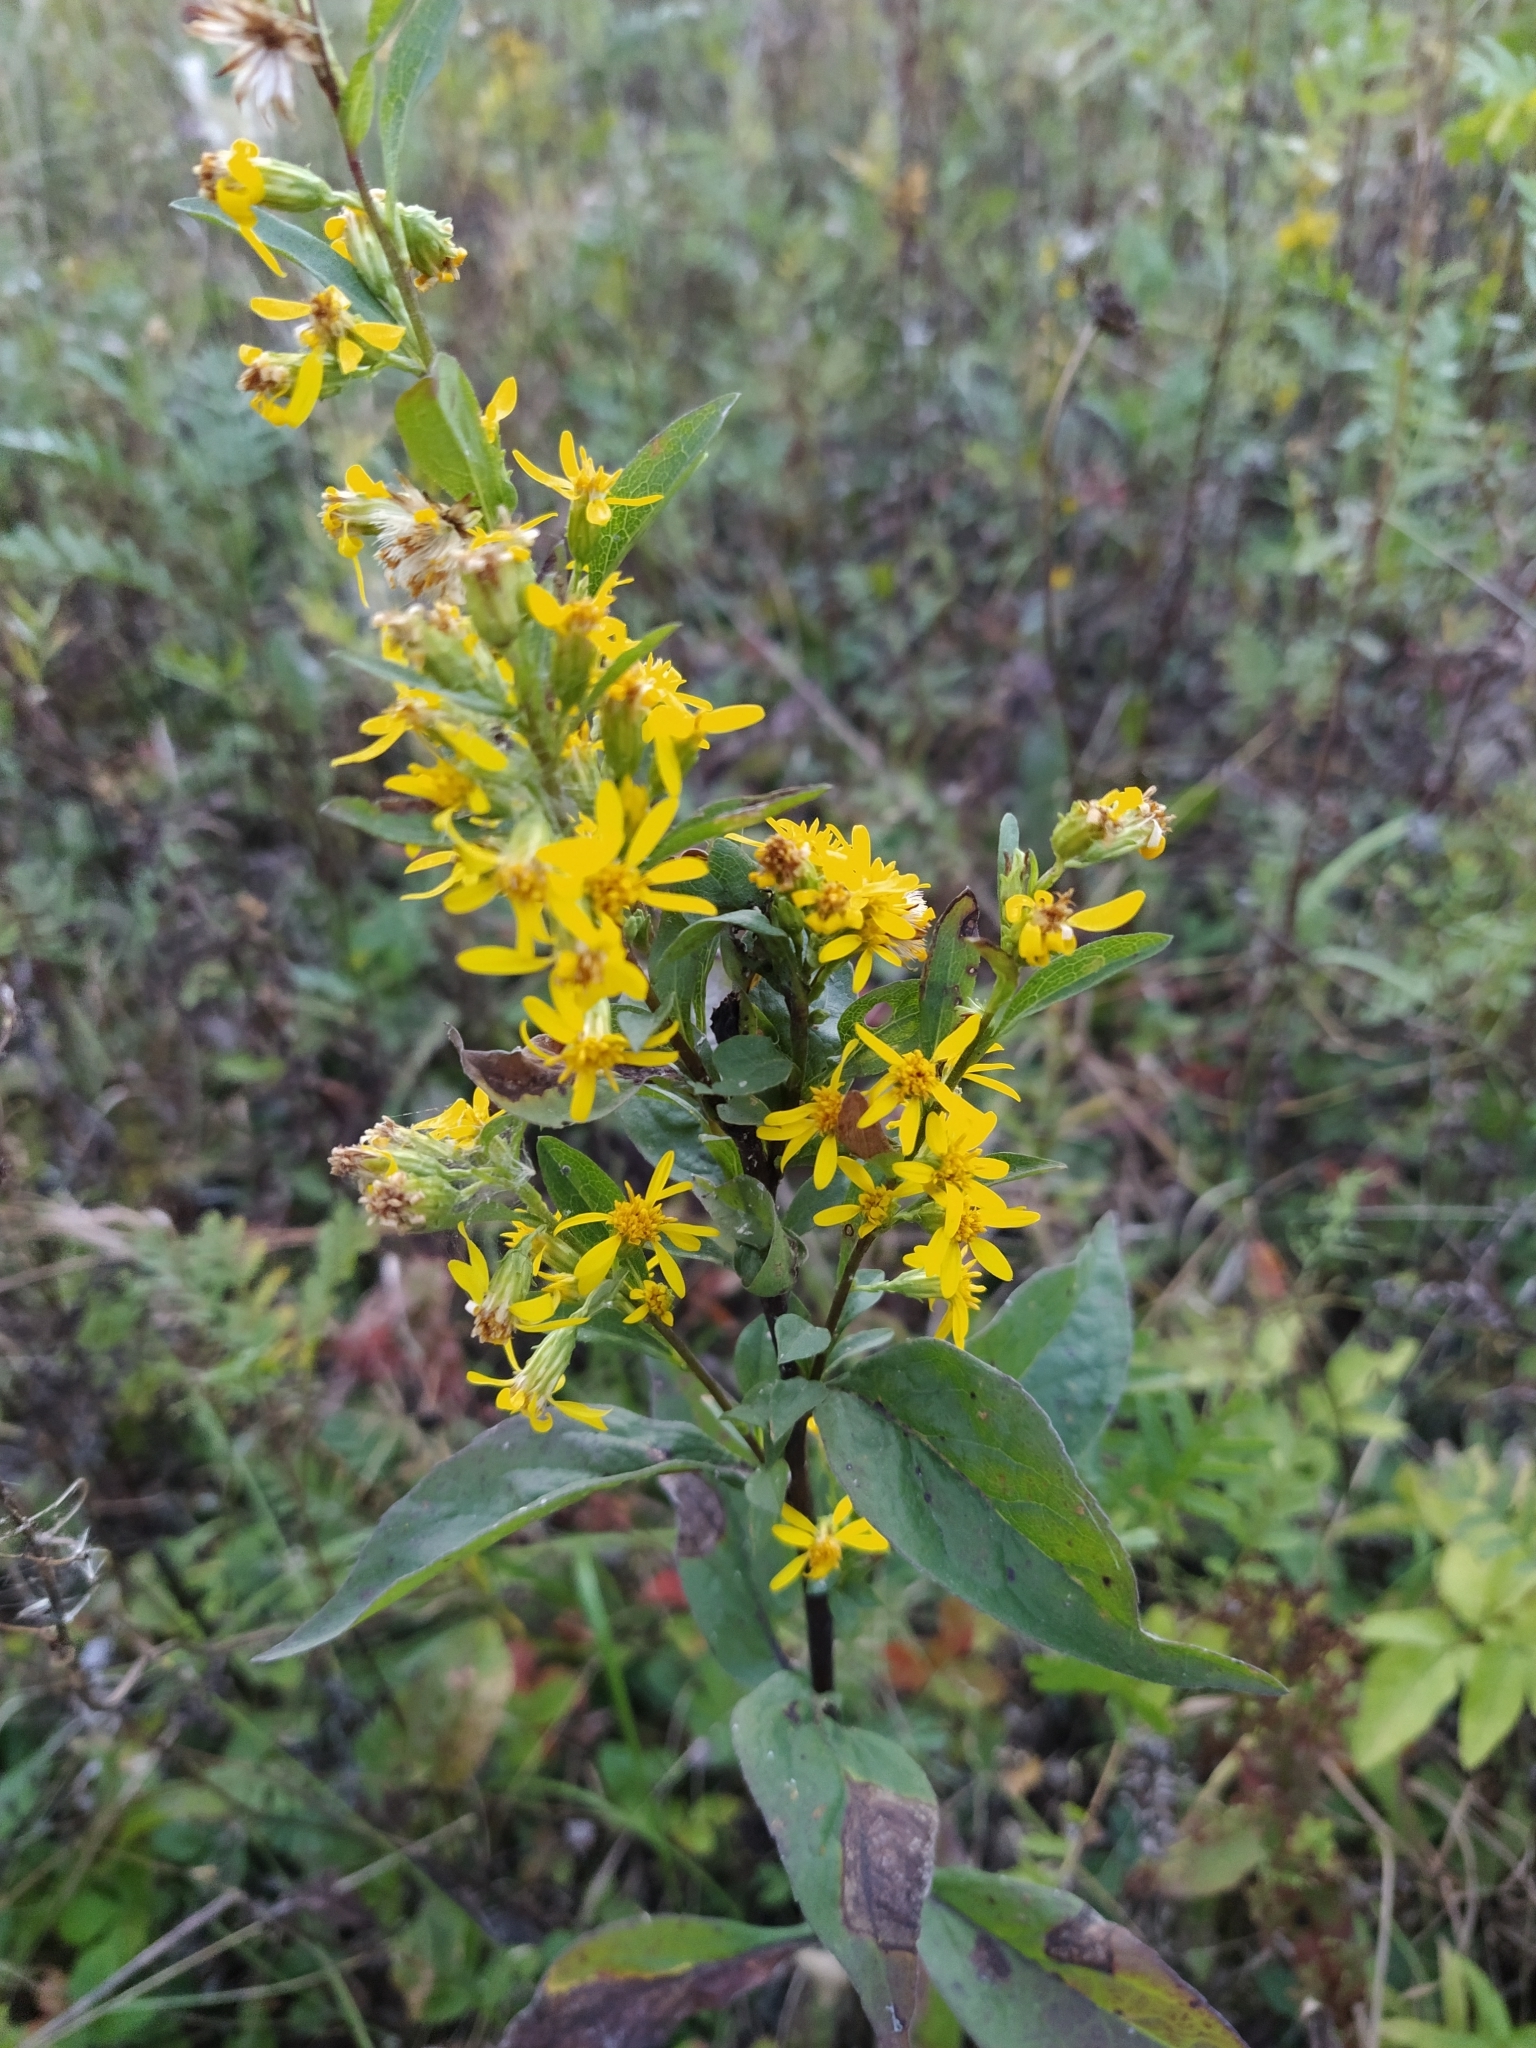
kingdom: Plantae
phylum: Tracheophyta
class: Magnoliopsida
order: Asterales
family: Asteraceae
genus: Solidago
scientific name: Solidago virgaurea
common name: Goldenrod
